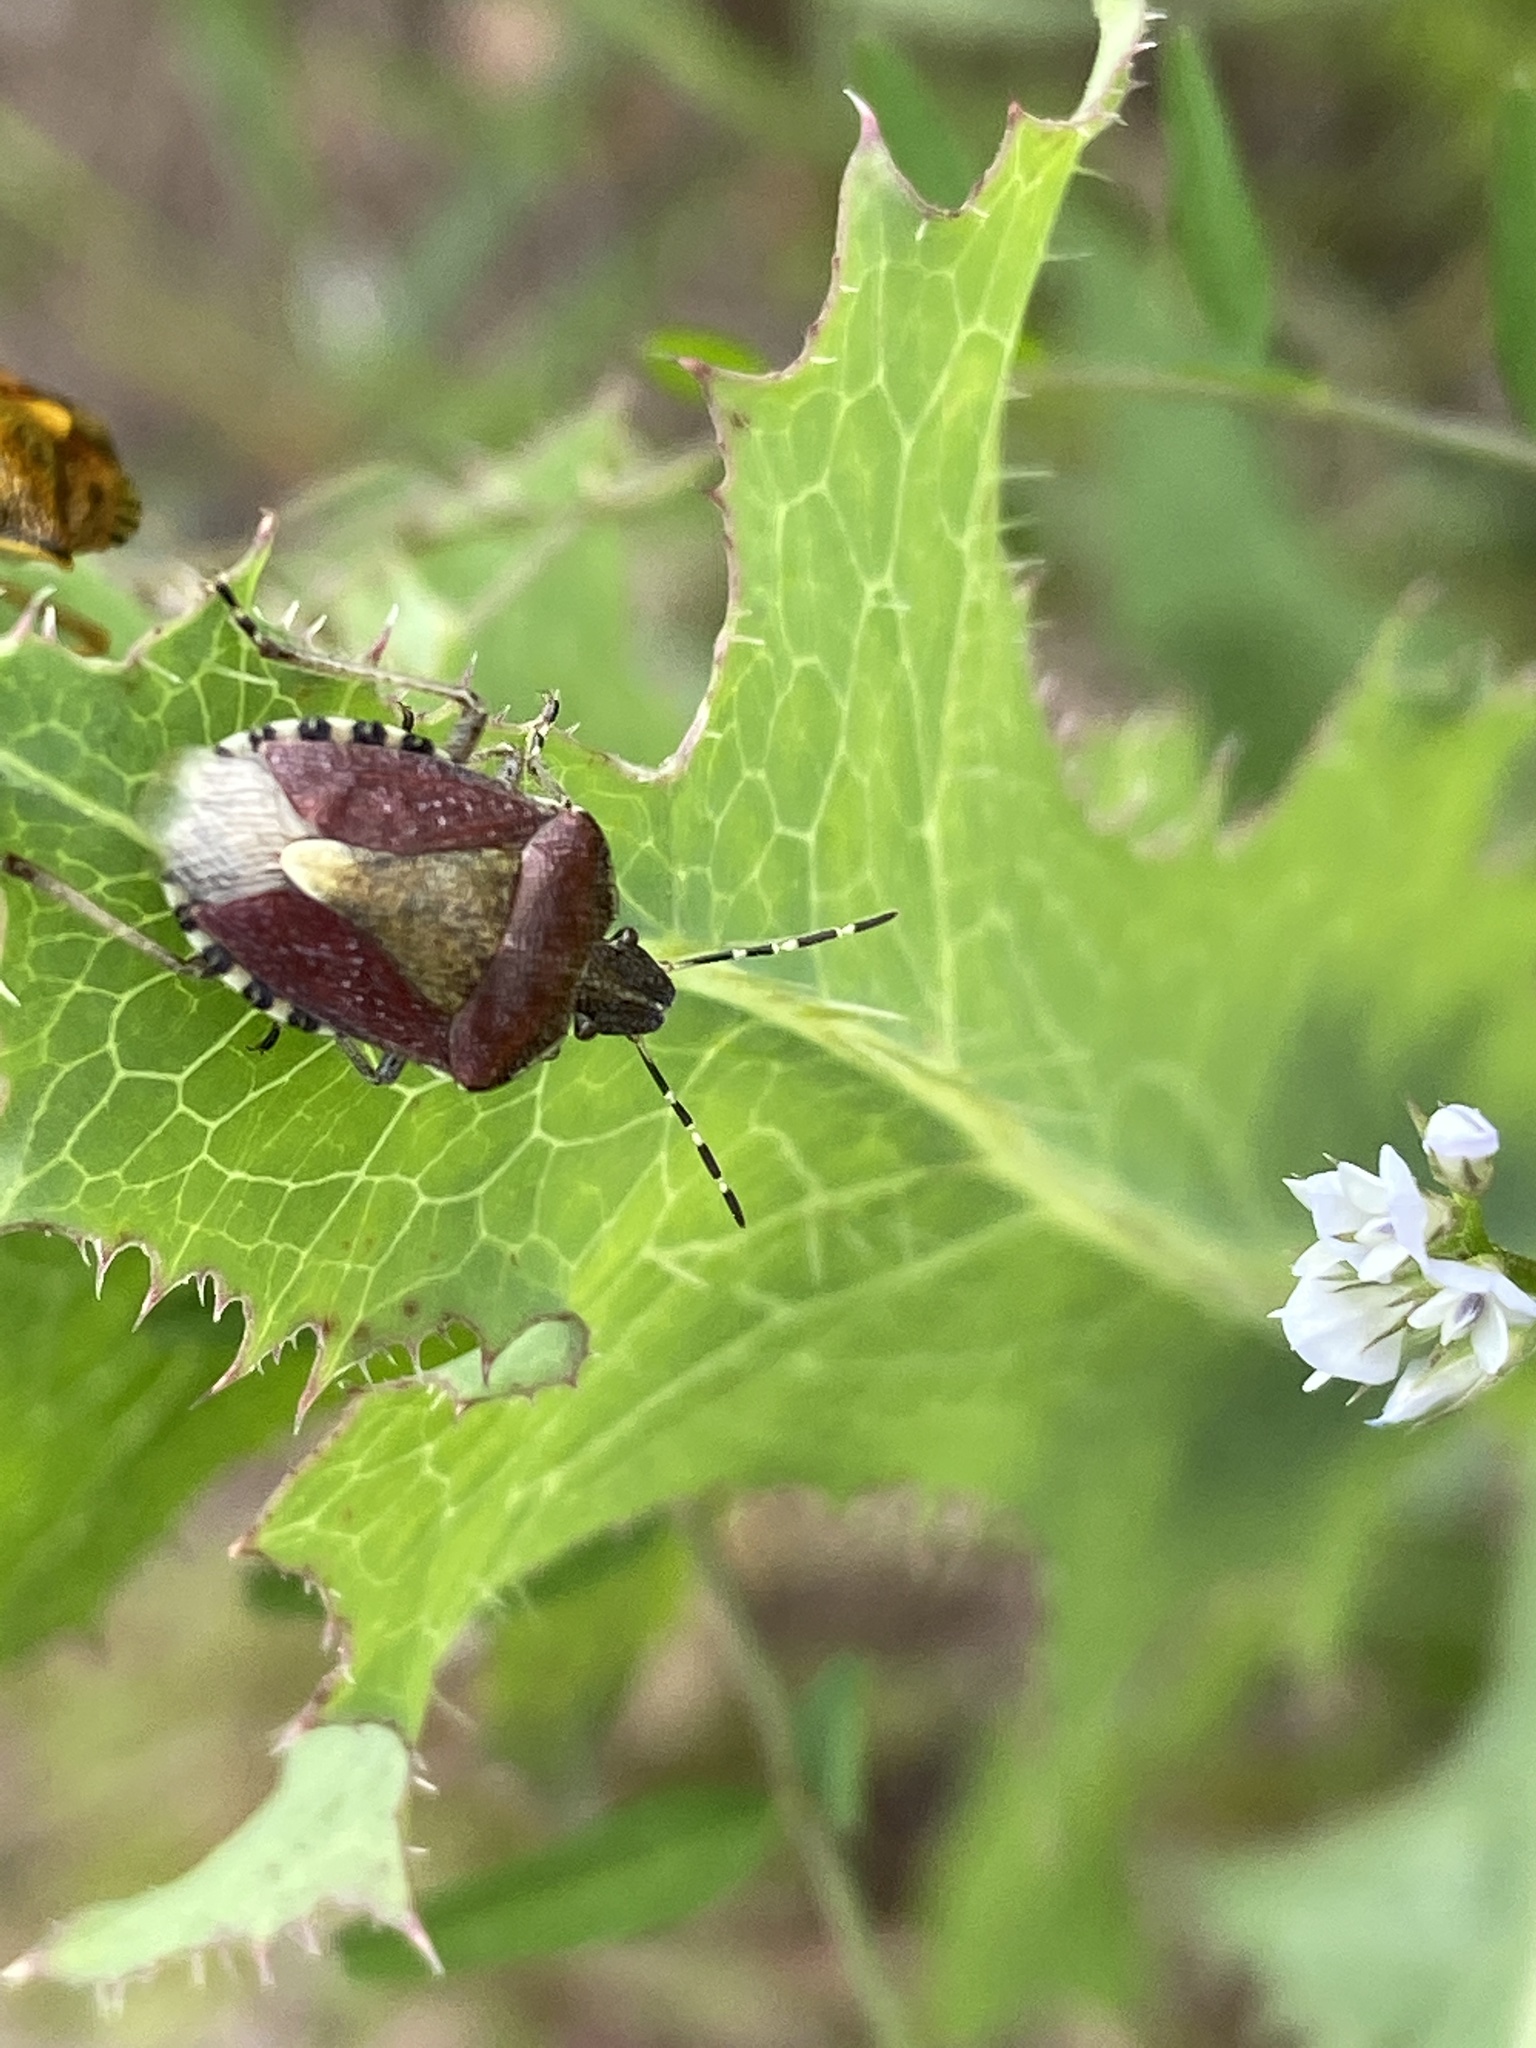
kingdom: Animalia
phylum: Arthropoda
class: Insecta
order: Hemiptera
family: Pentatomidae
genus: Dolycoris
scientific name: Dolycoris baccarum
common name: Sloe bug
